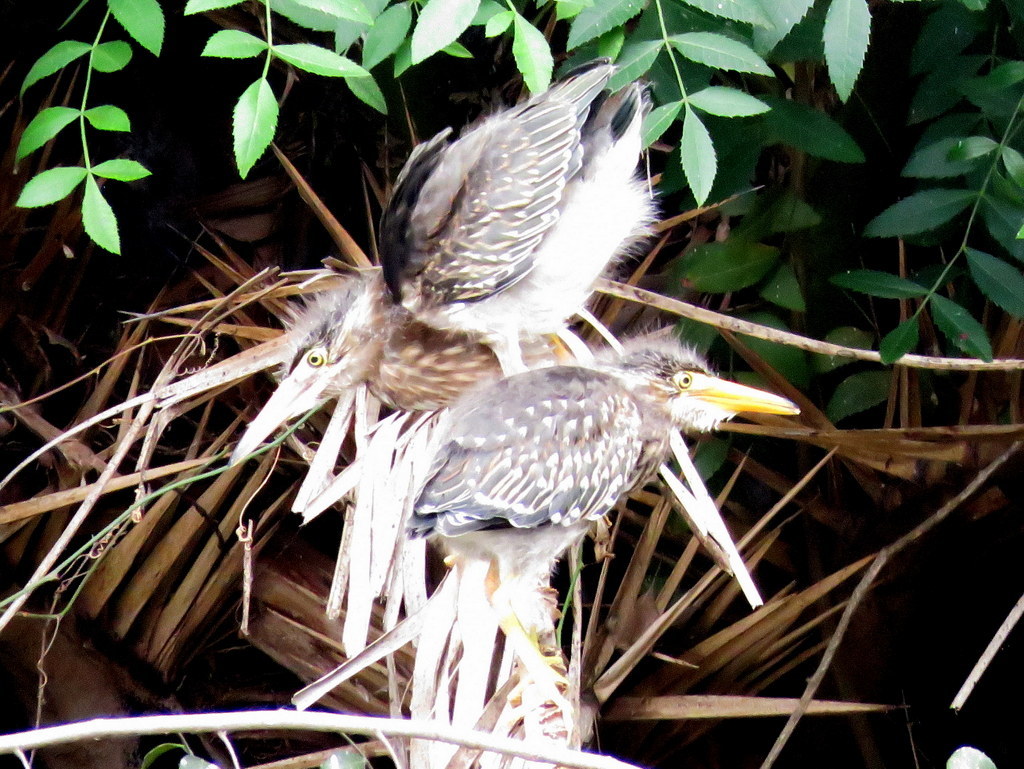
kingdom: Animalia
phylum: Chordata
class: Aves
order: Pelecaniformes
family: Ardeidae
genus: Butorides
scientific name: Butorides striata
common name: Striated heron
